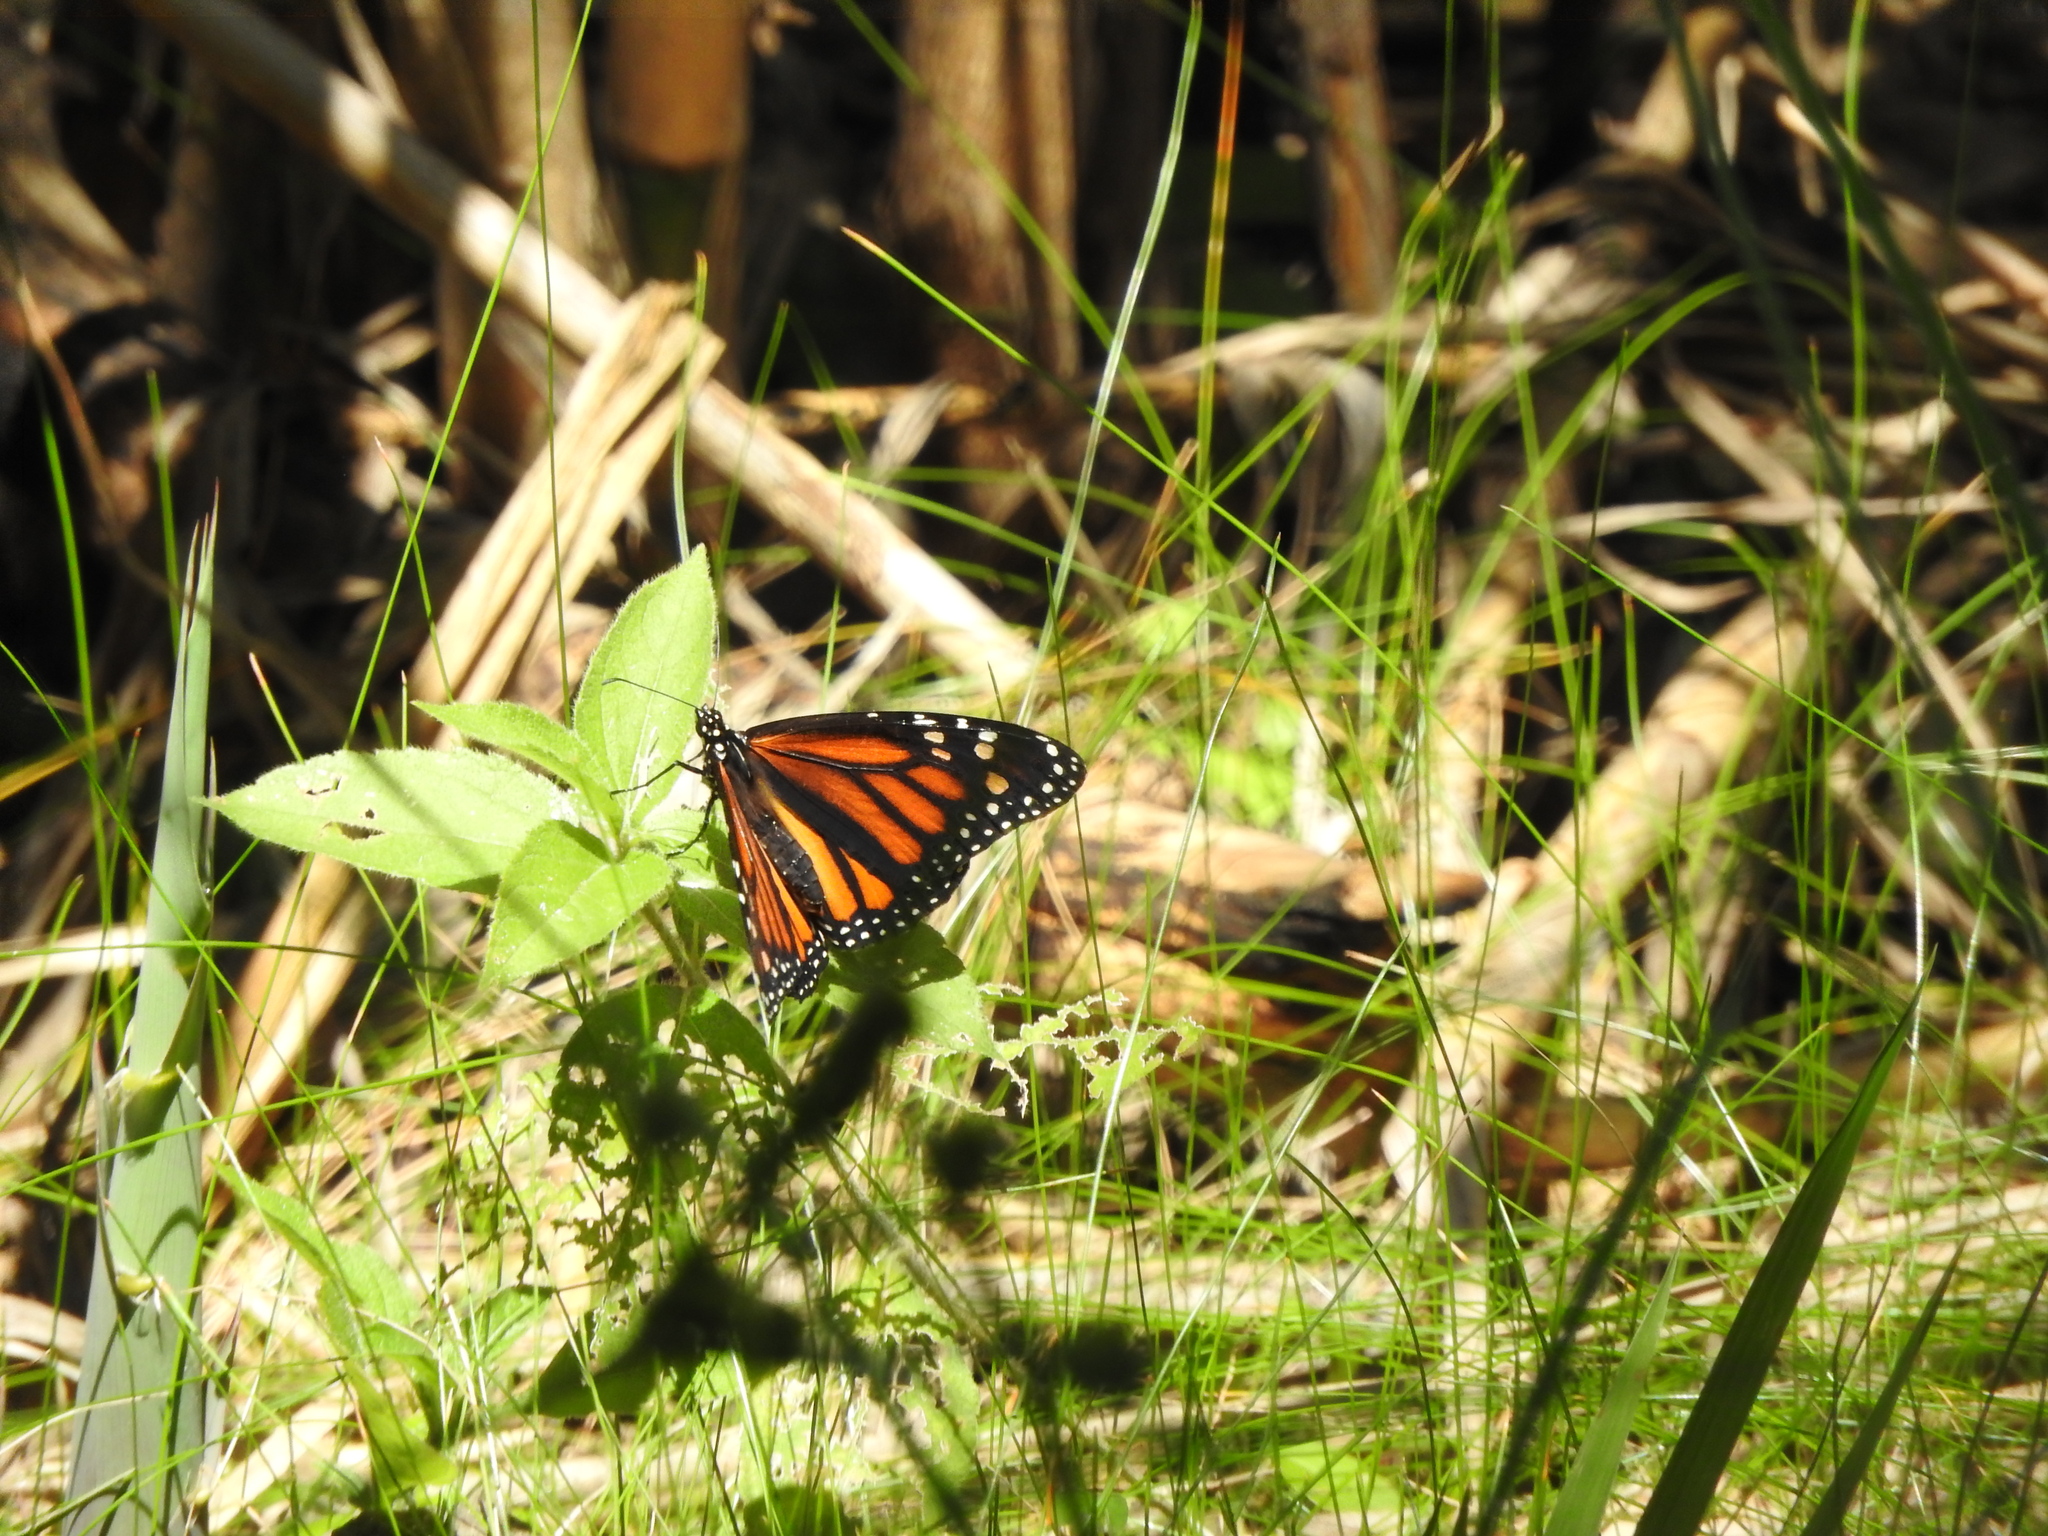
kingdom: Animalia
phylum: Arthropoda
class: Insecta
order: Lepidoptera
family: Nymphalidae
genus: Danaus
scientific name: Danaus plexippus
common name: Monarch
